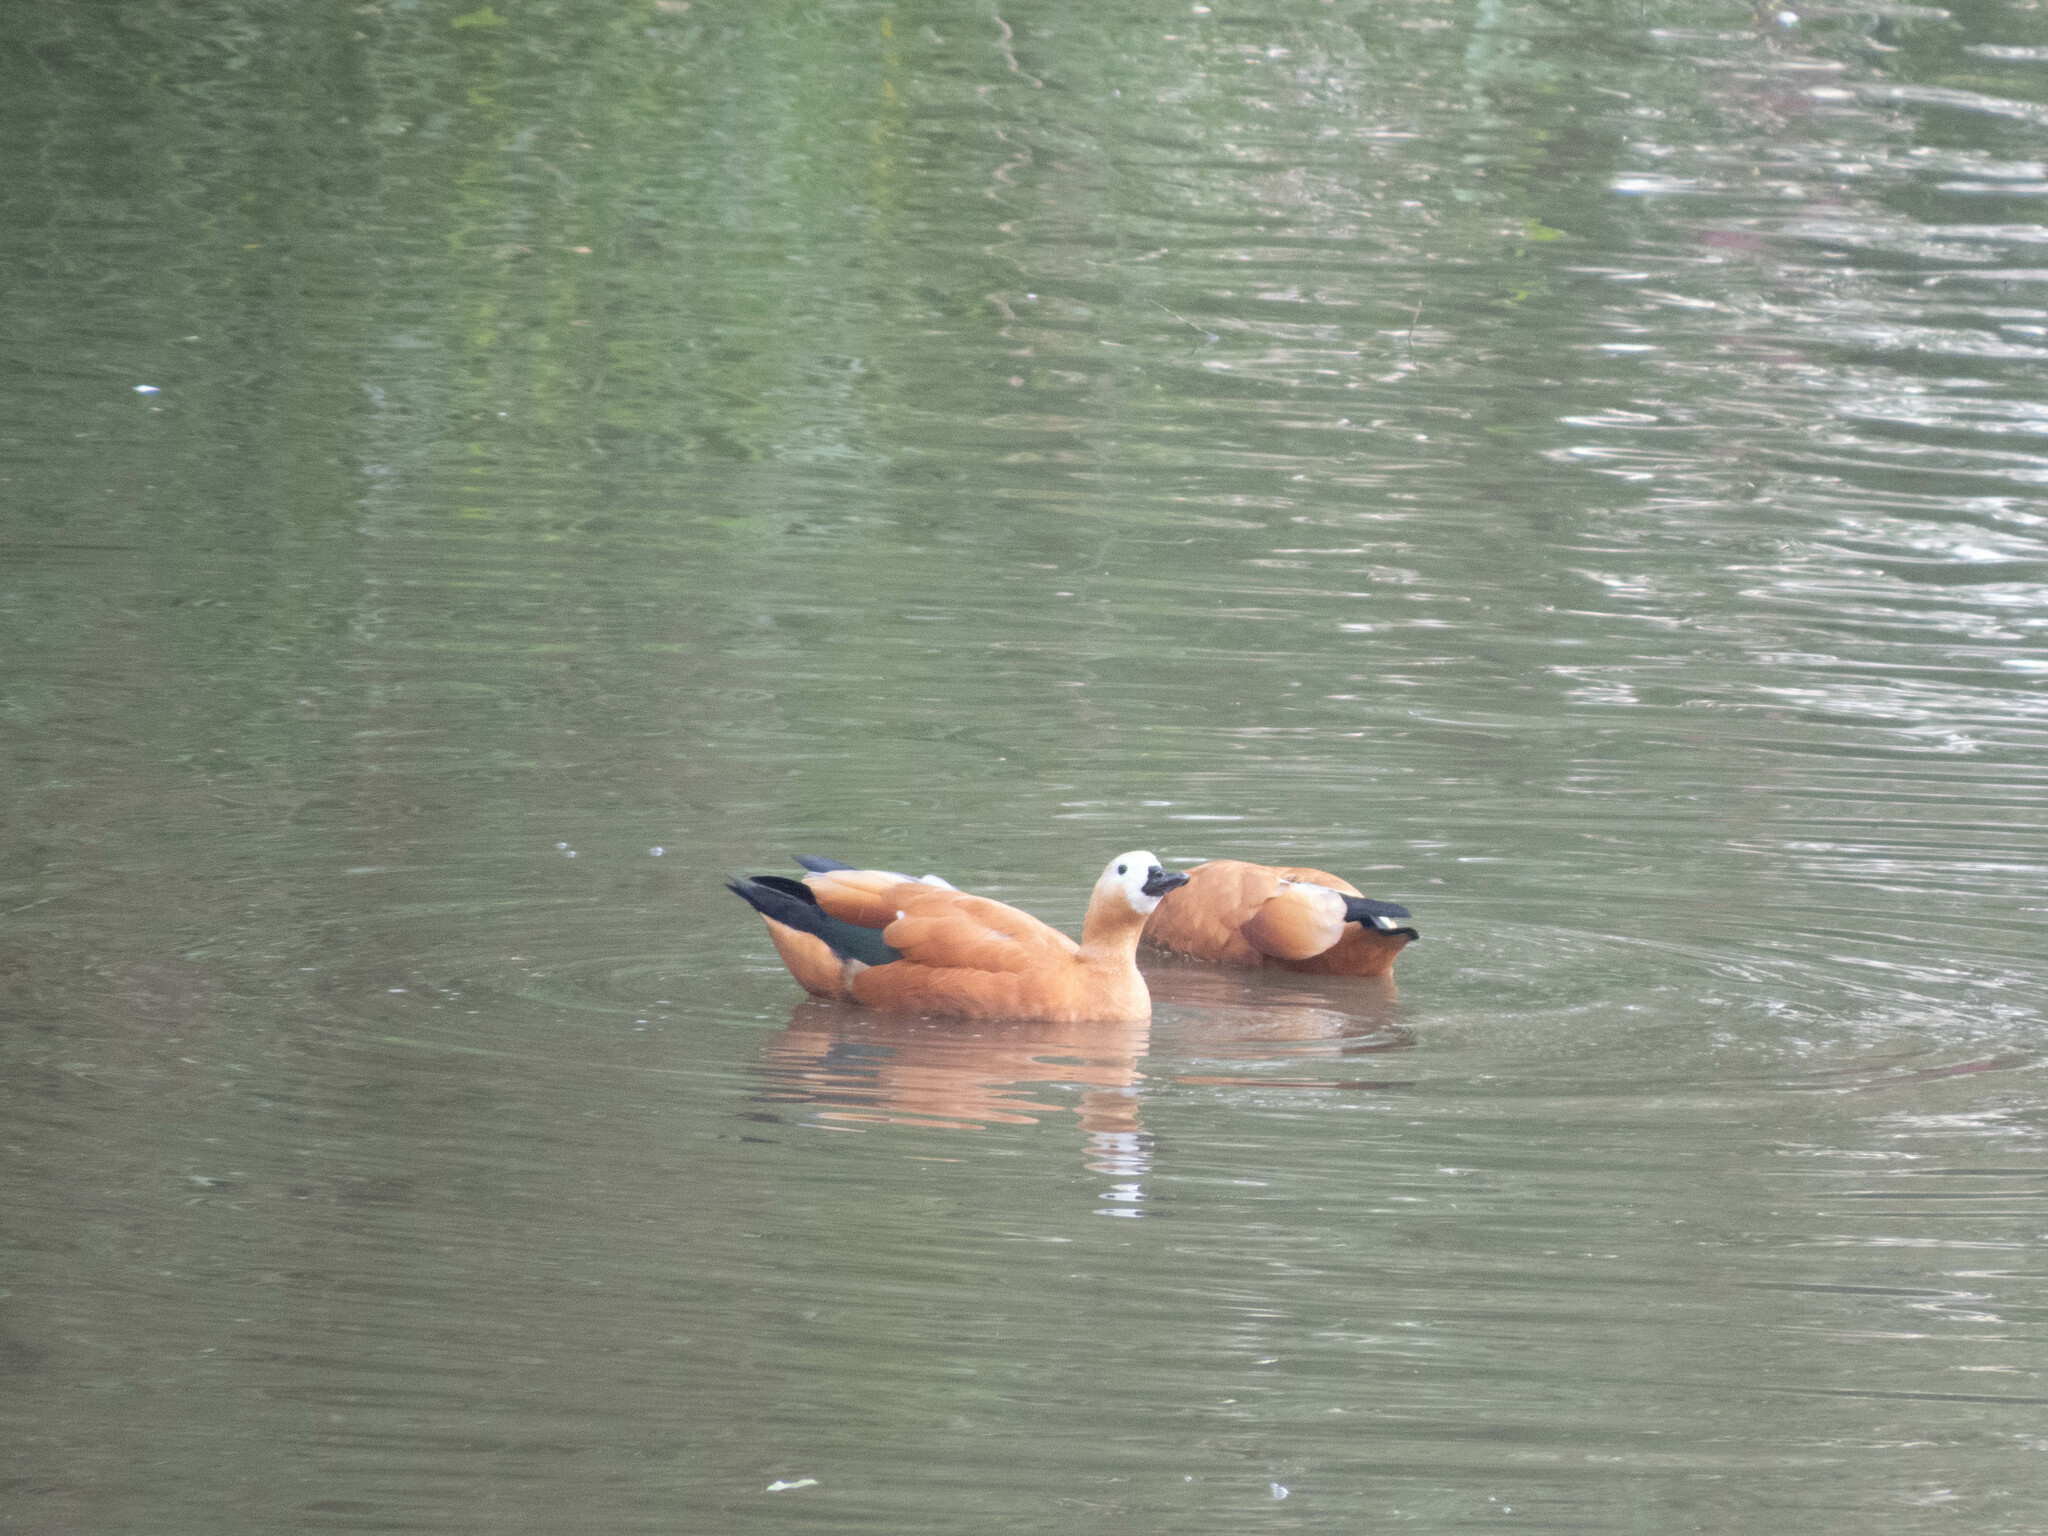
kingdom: Animalia
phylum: Chordata
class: Aves
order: Anseriformes
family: Anatidae
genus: Tadorna
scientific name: Tadorna ferruginea
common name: Ruddy shelduck
